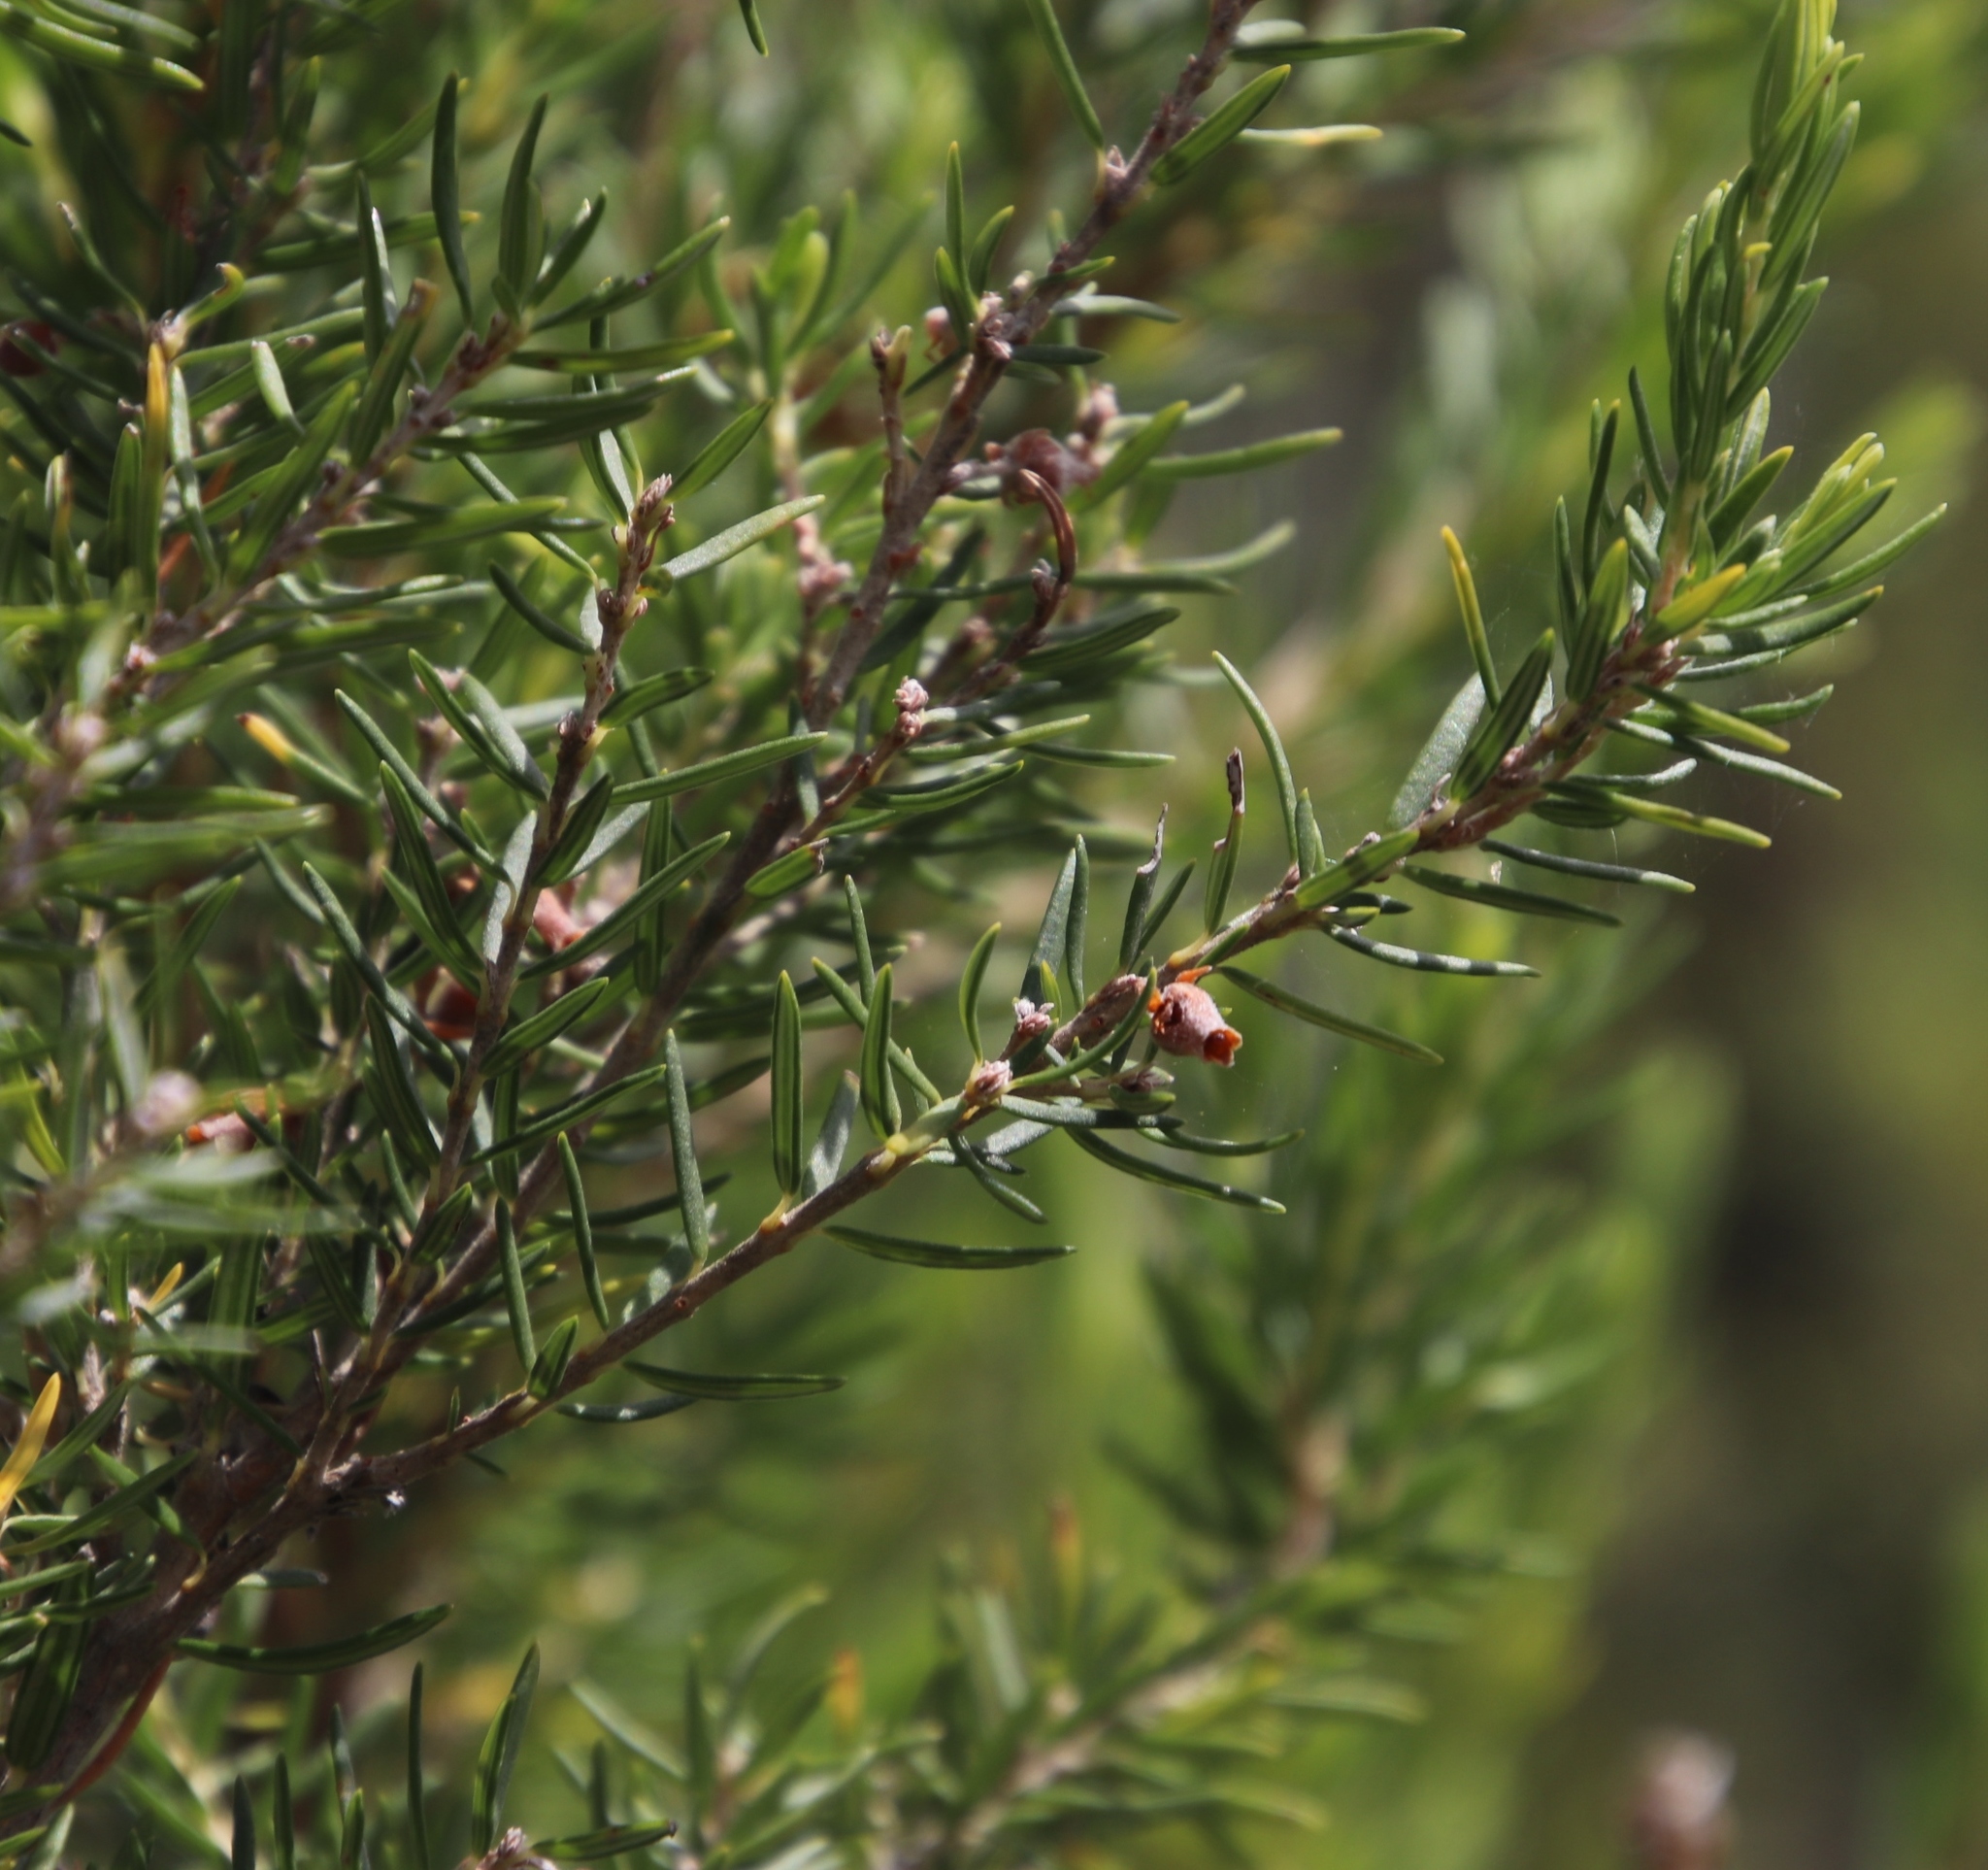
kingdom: Plantae
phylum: Tracheophyta
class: Magnoliopsida
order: Ericales
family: Ericaceae
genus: Erica
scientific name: Erica caffra
